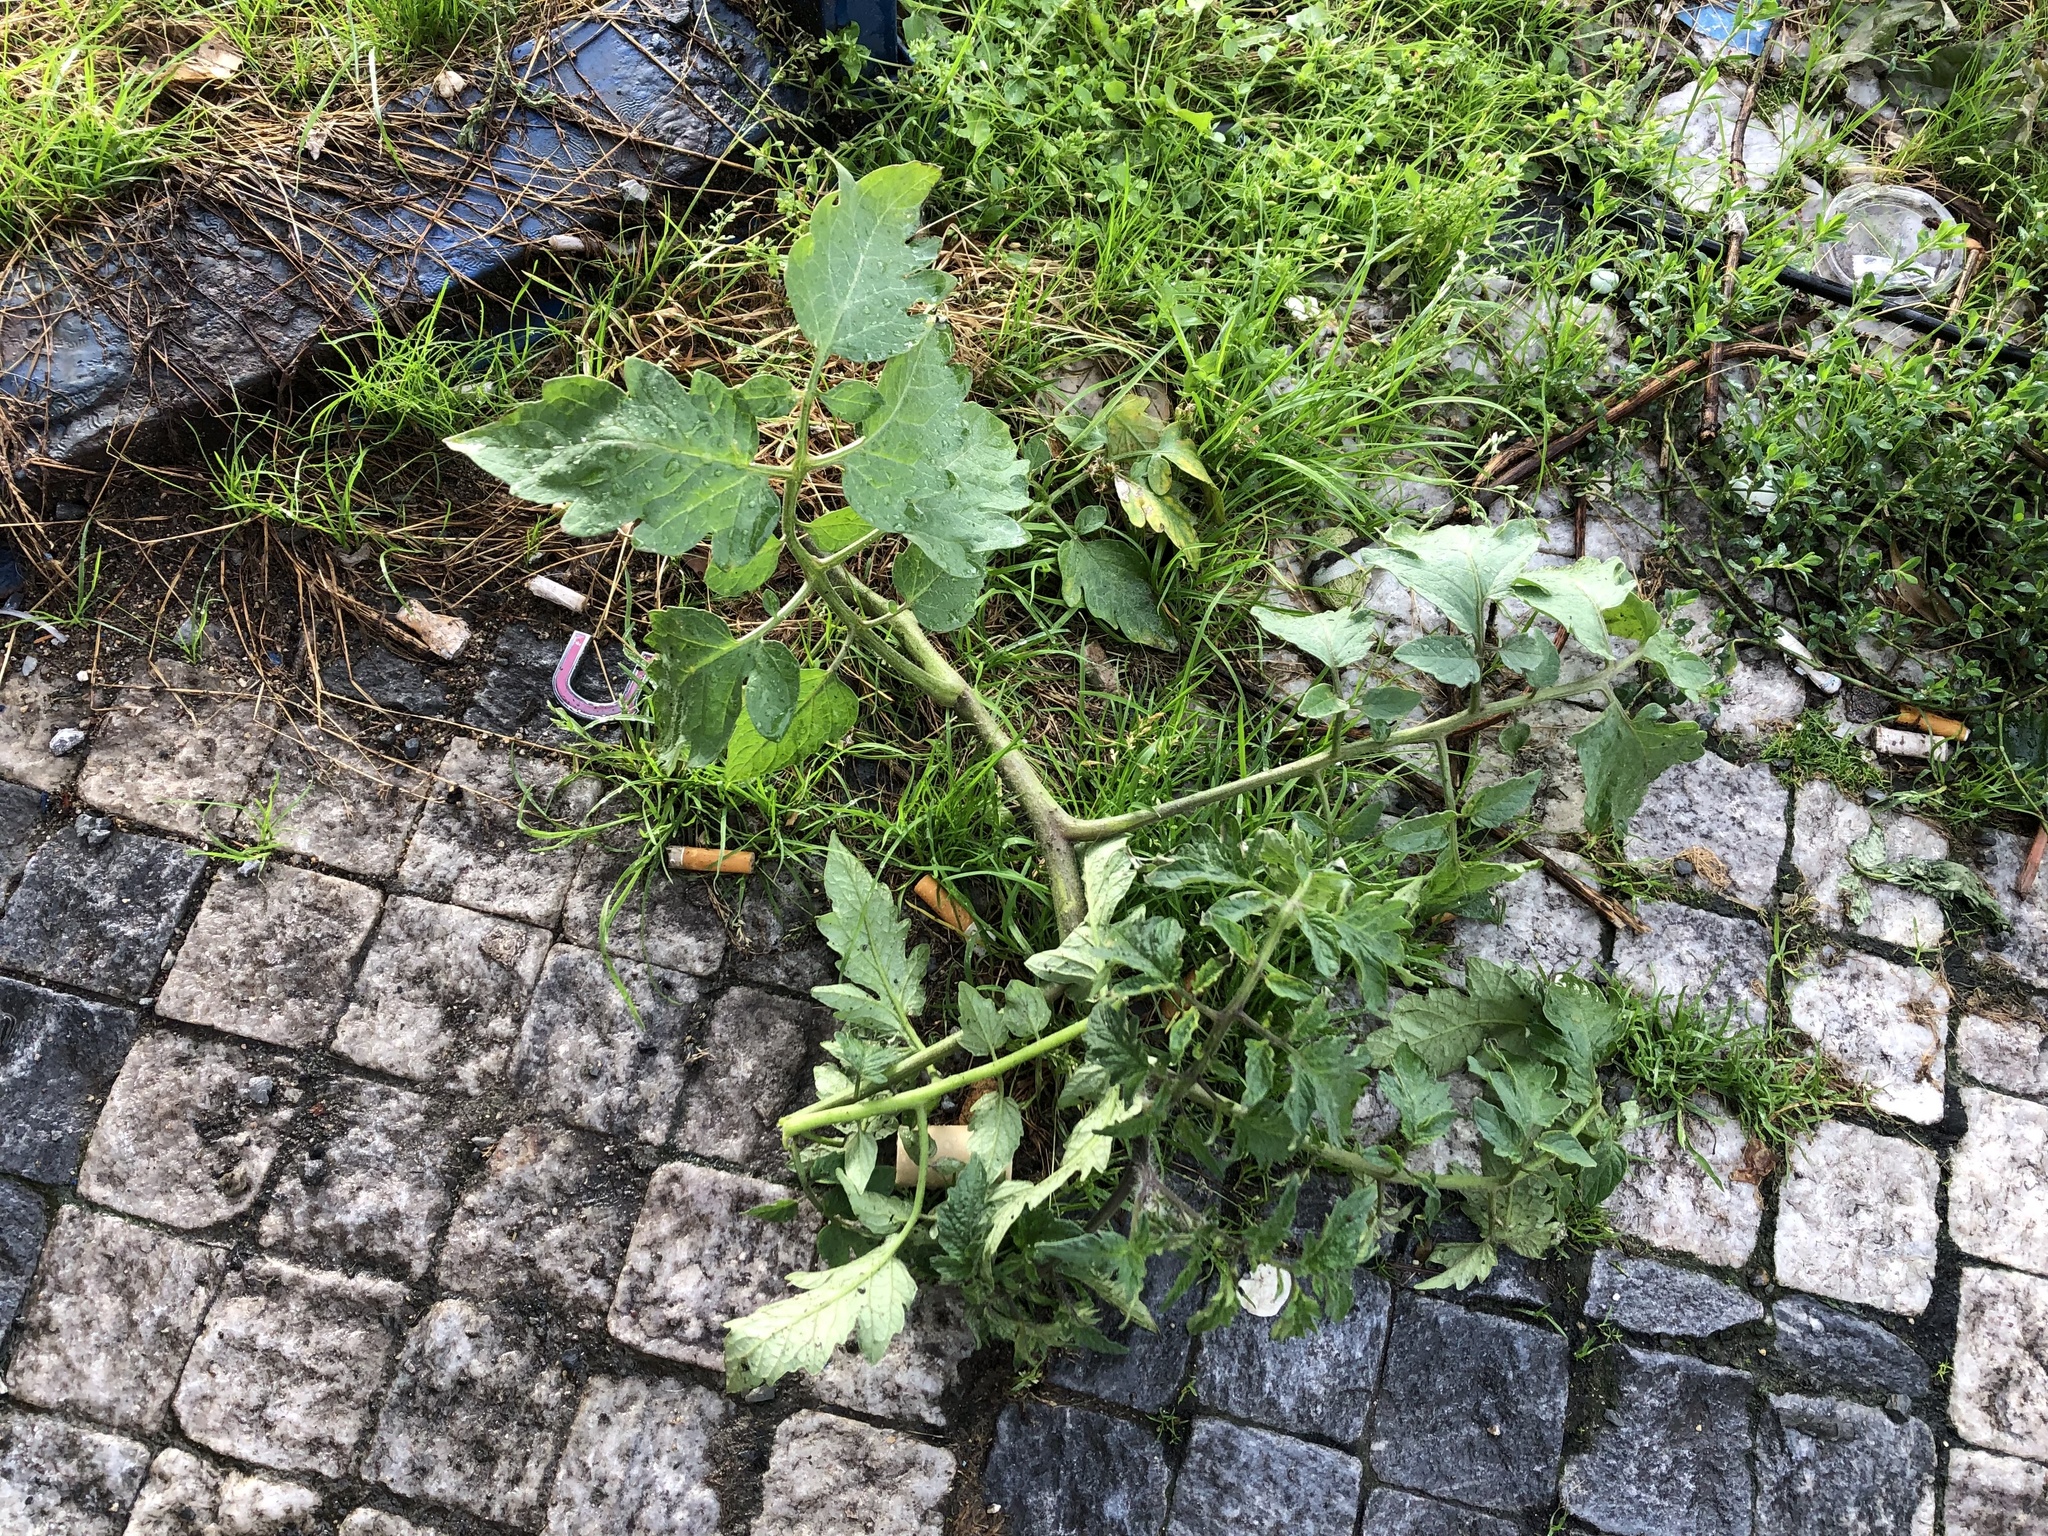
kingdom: Plantae
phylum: Tracheophyta
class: Magnoliopsida
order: Solanales
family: Solanaceae
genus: Solanum
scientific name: Solanum lycopersicum
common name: Garden tomato
